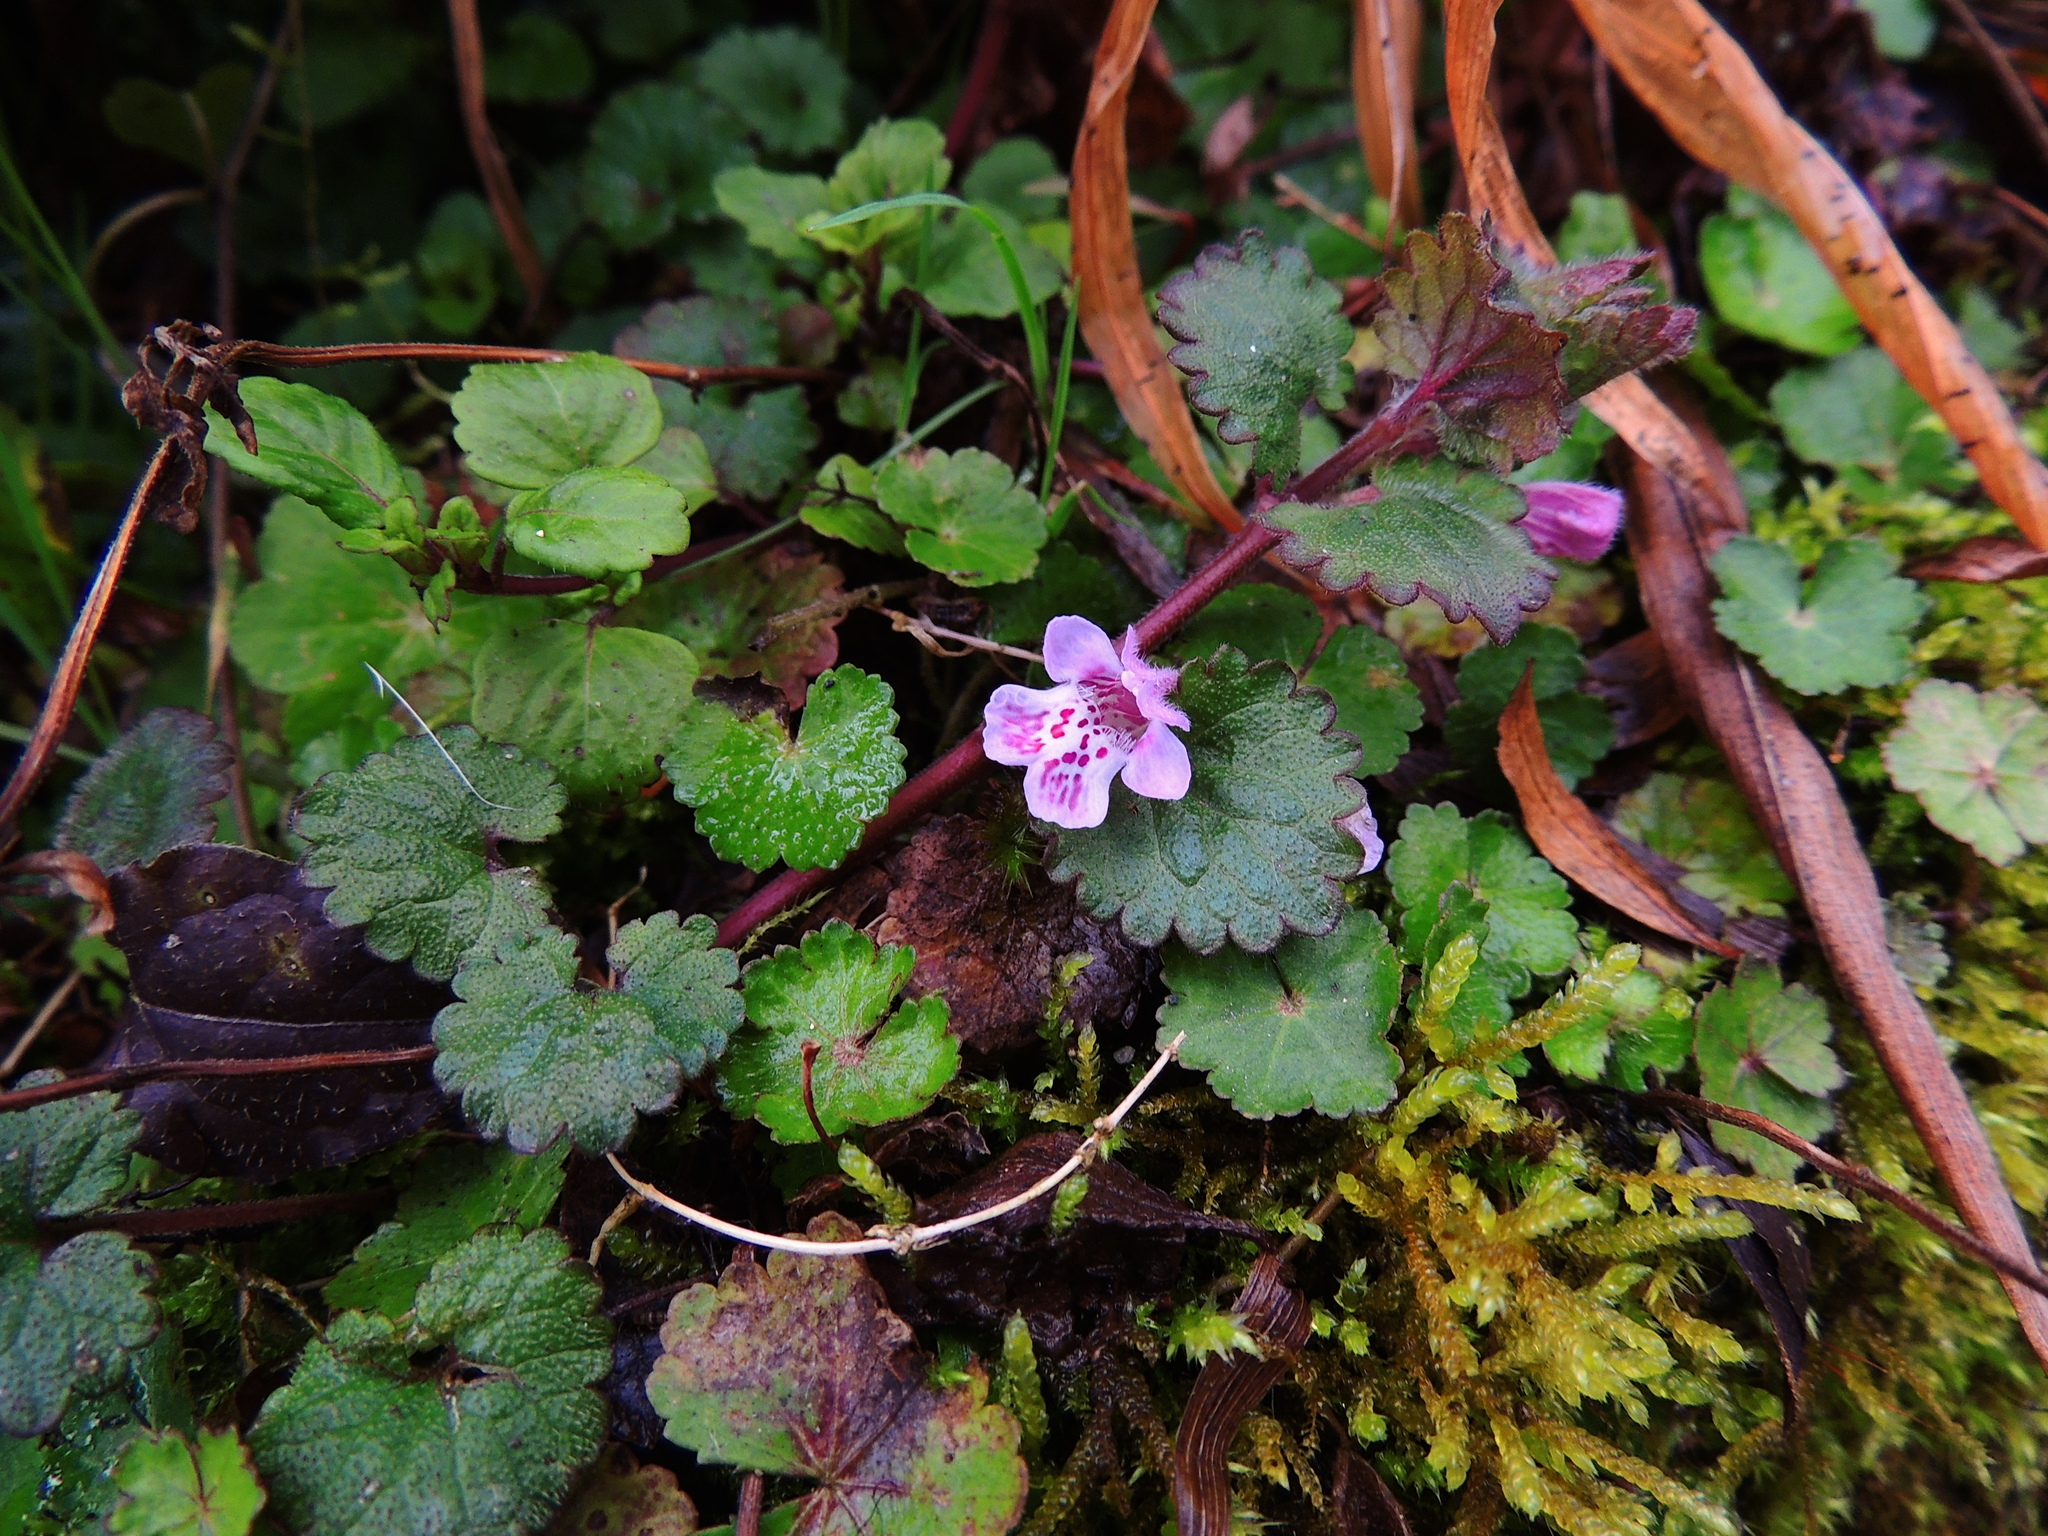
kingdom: Plantae
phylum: Tracheophyta
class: Magnoliopsida
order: Lamiales
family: Lamiaceae
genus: Glechoma
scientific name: Glechoma grandis
